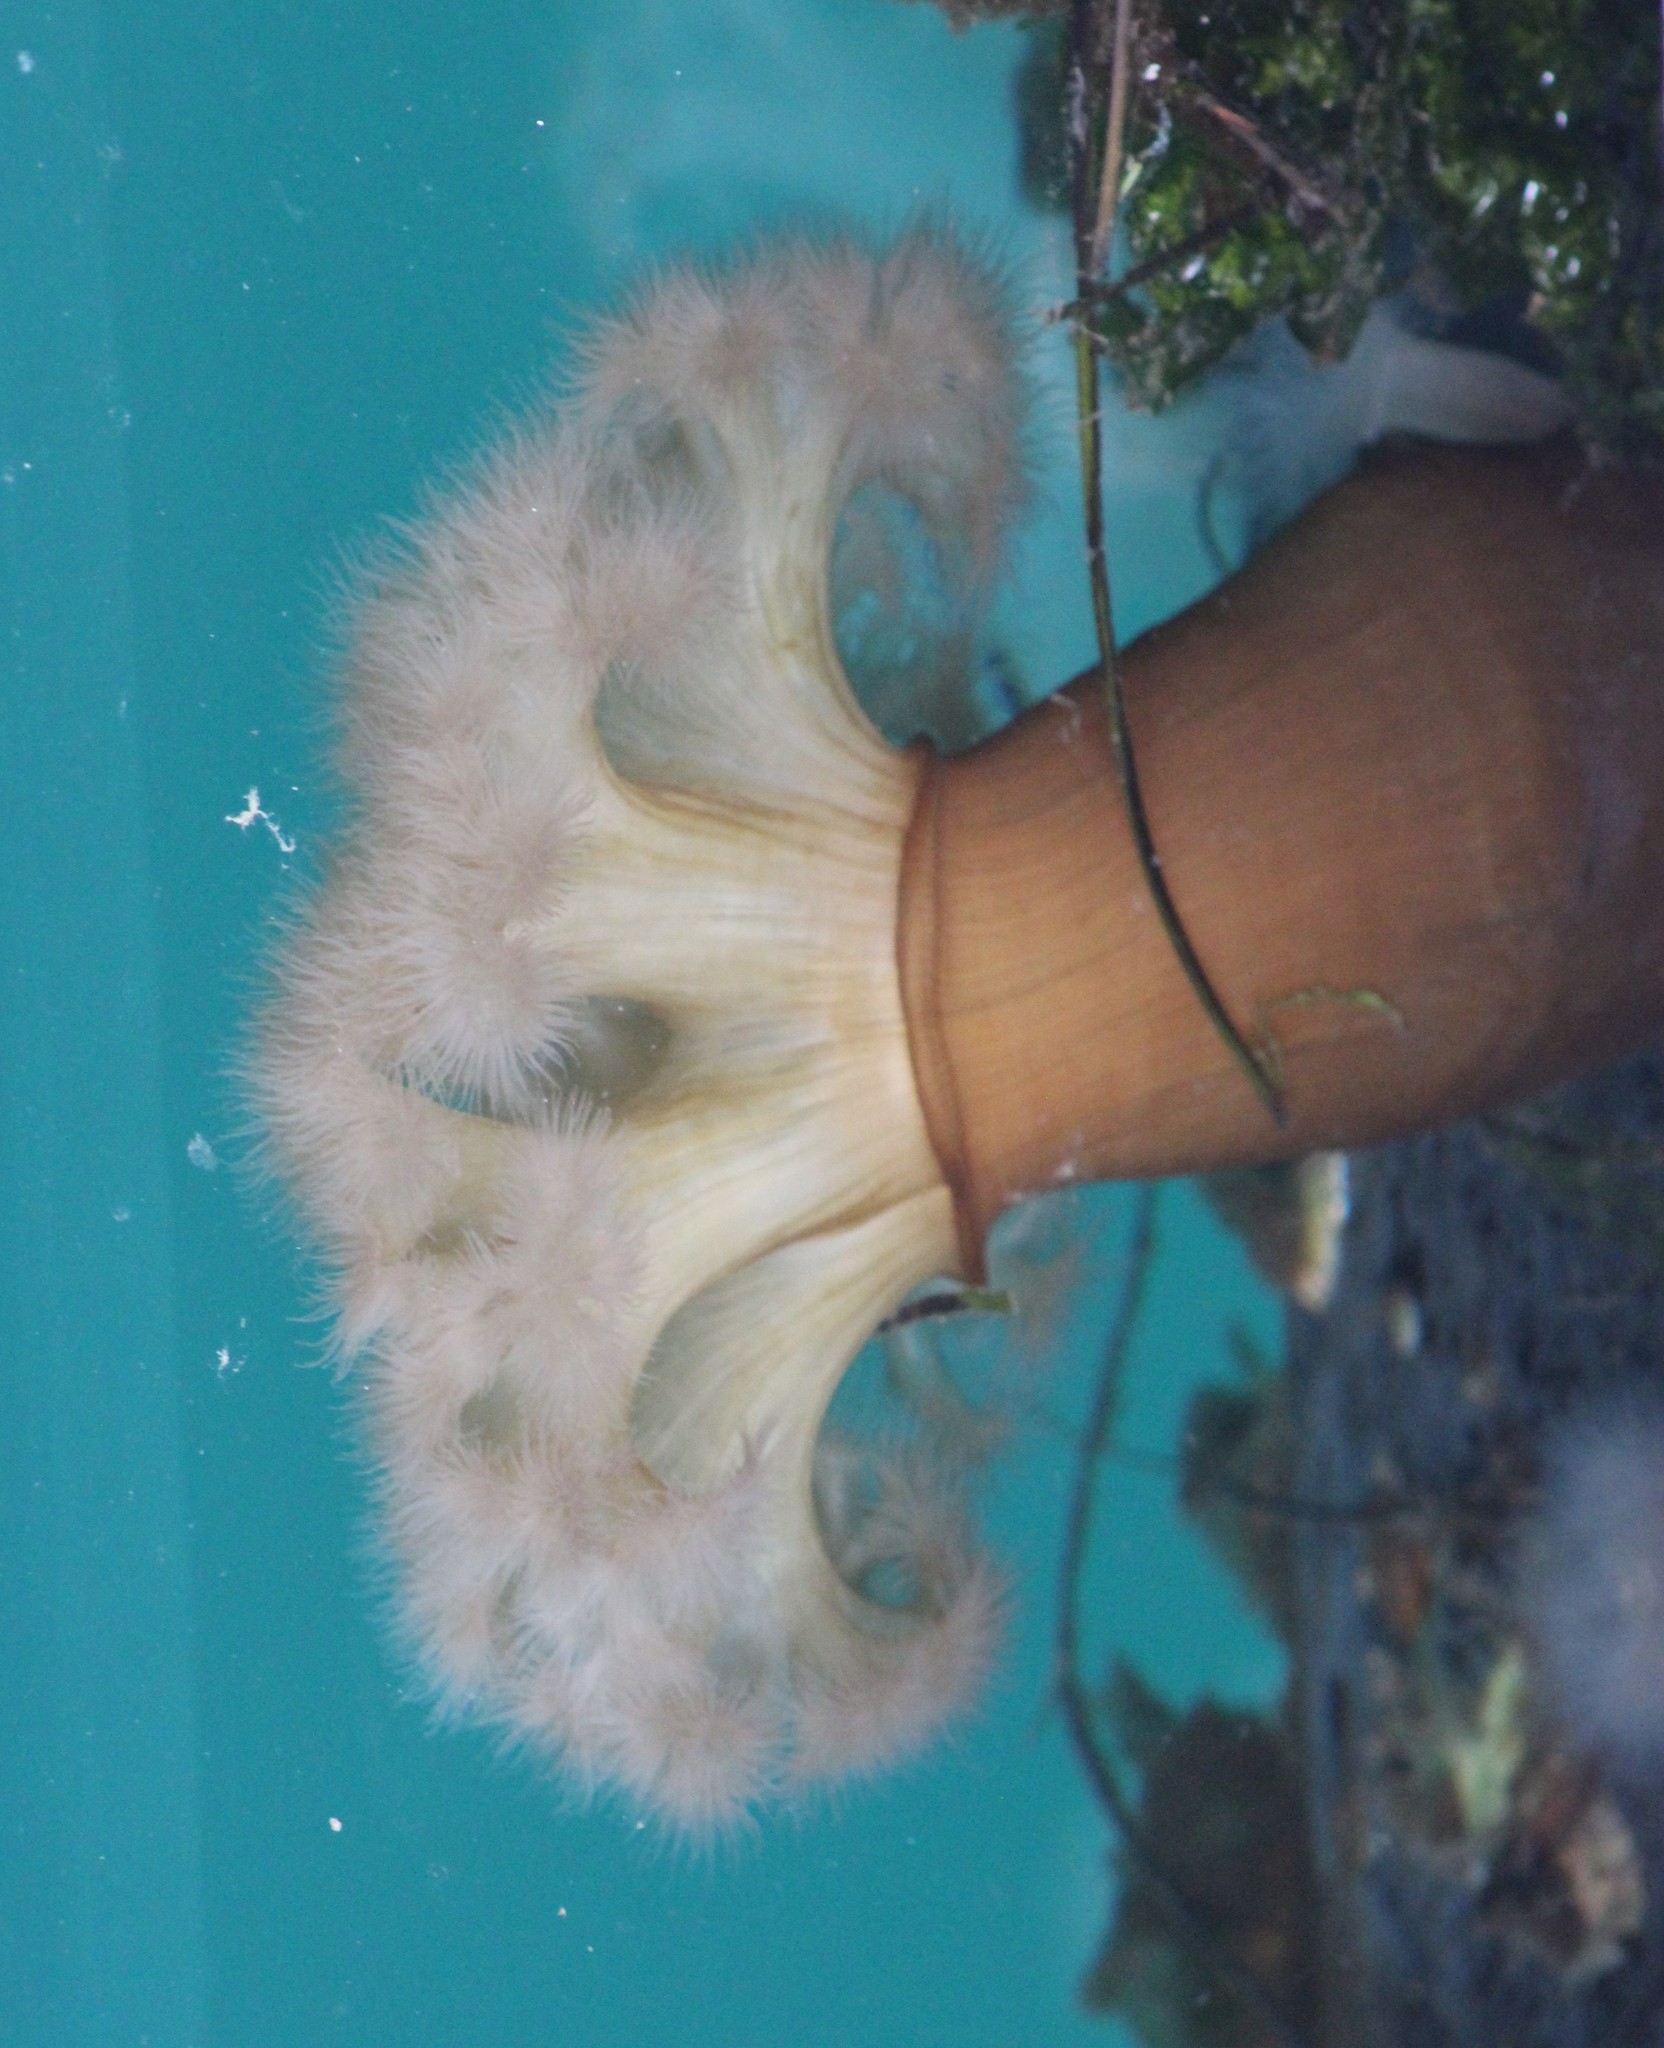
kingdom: Animalia
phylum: Cnidaria
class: Anthozoa
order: Actiniaria
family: Metridiidae
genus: Metridium
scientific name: Metridium farcimen
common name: Gigantic anemone
